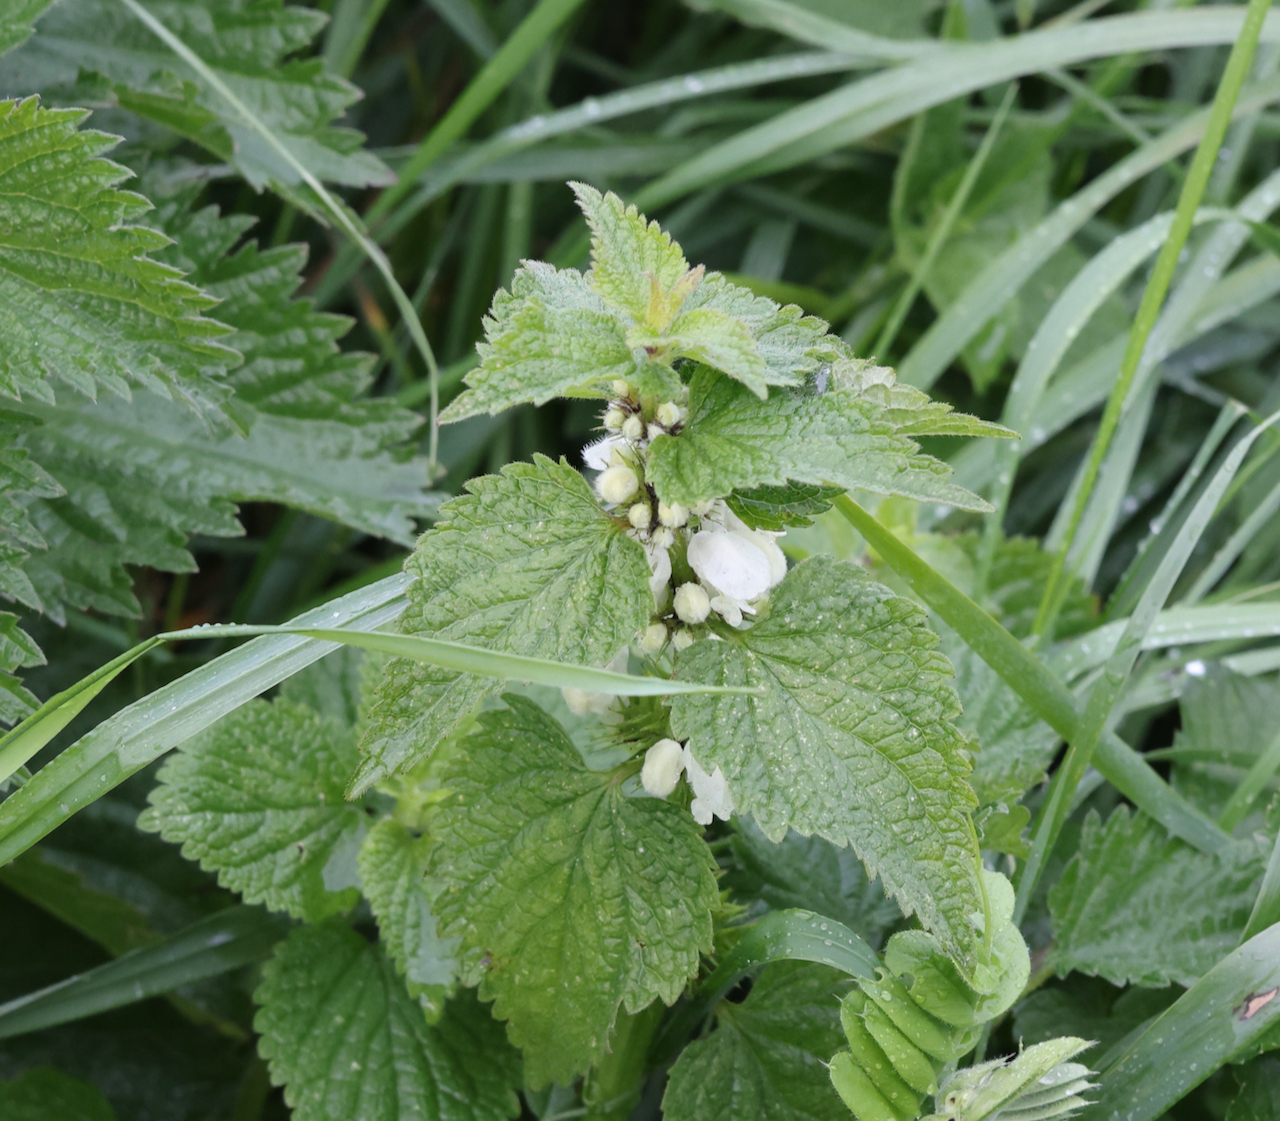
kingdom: Plantae
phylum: Tracheophyta
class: Magnoliopsida
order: Lamiales
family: Lamiaceae
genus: Lamium
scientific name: Lamium album
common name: White dead-nettle
